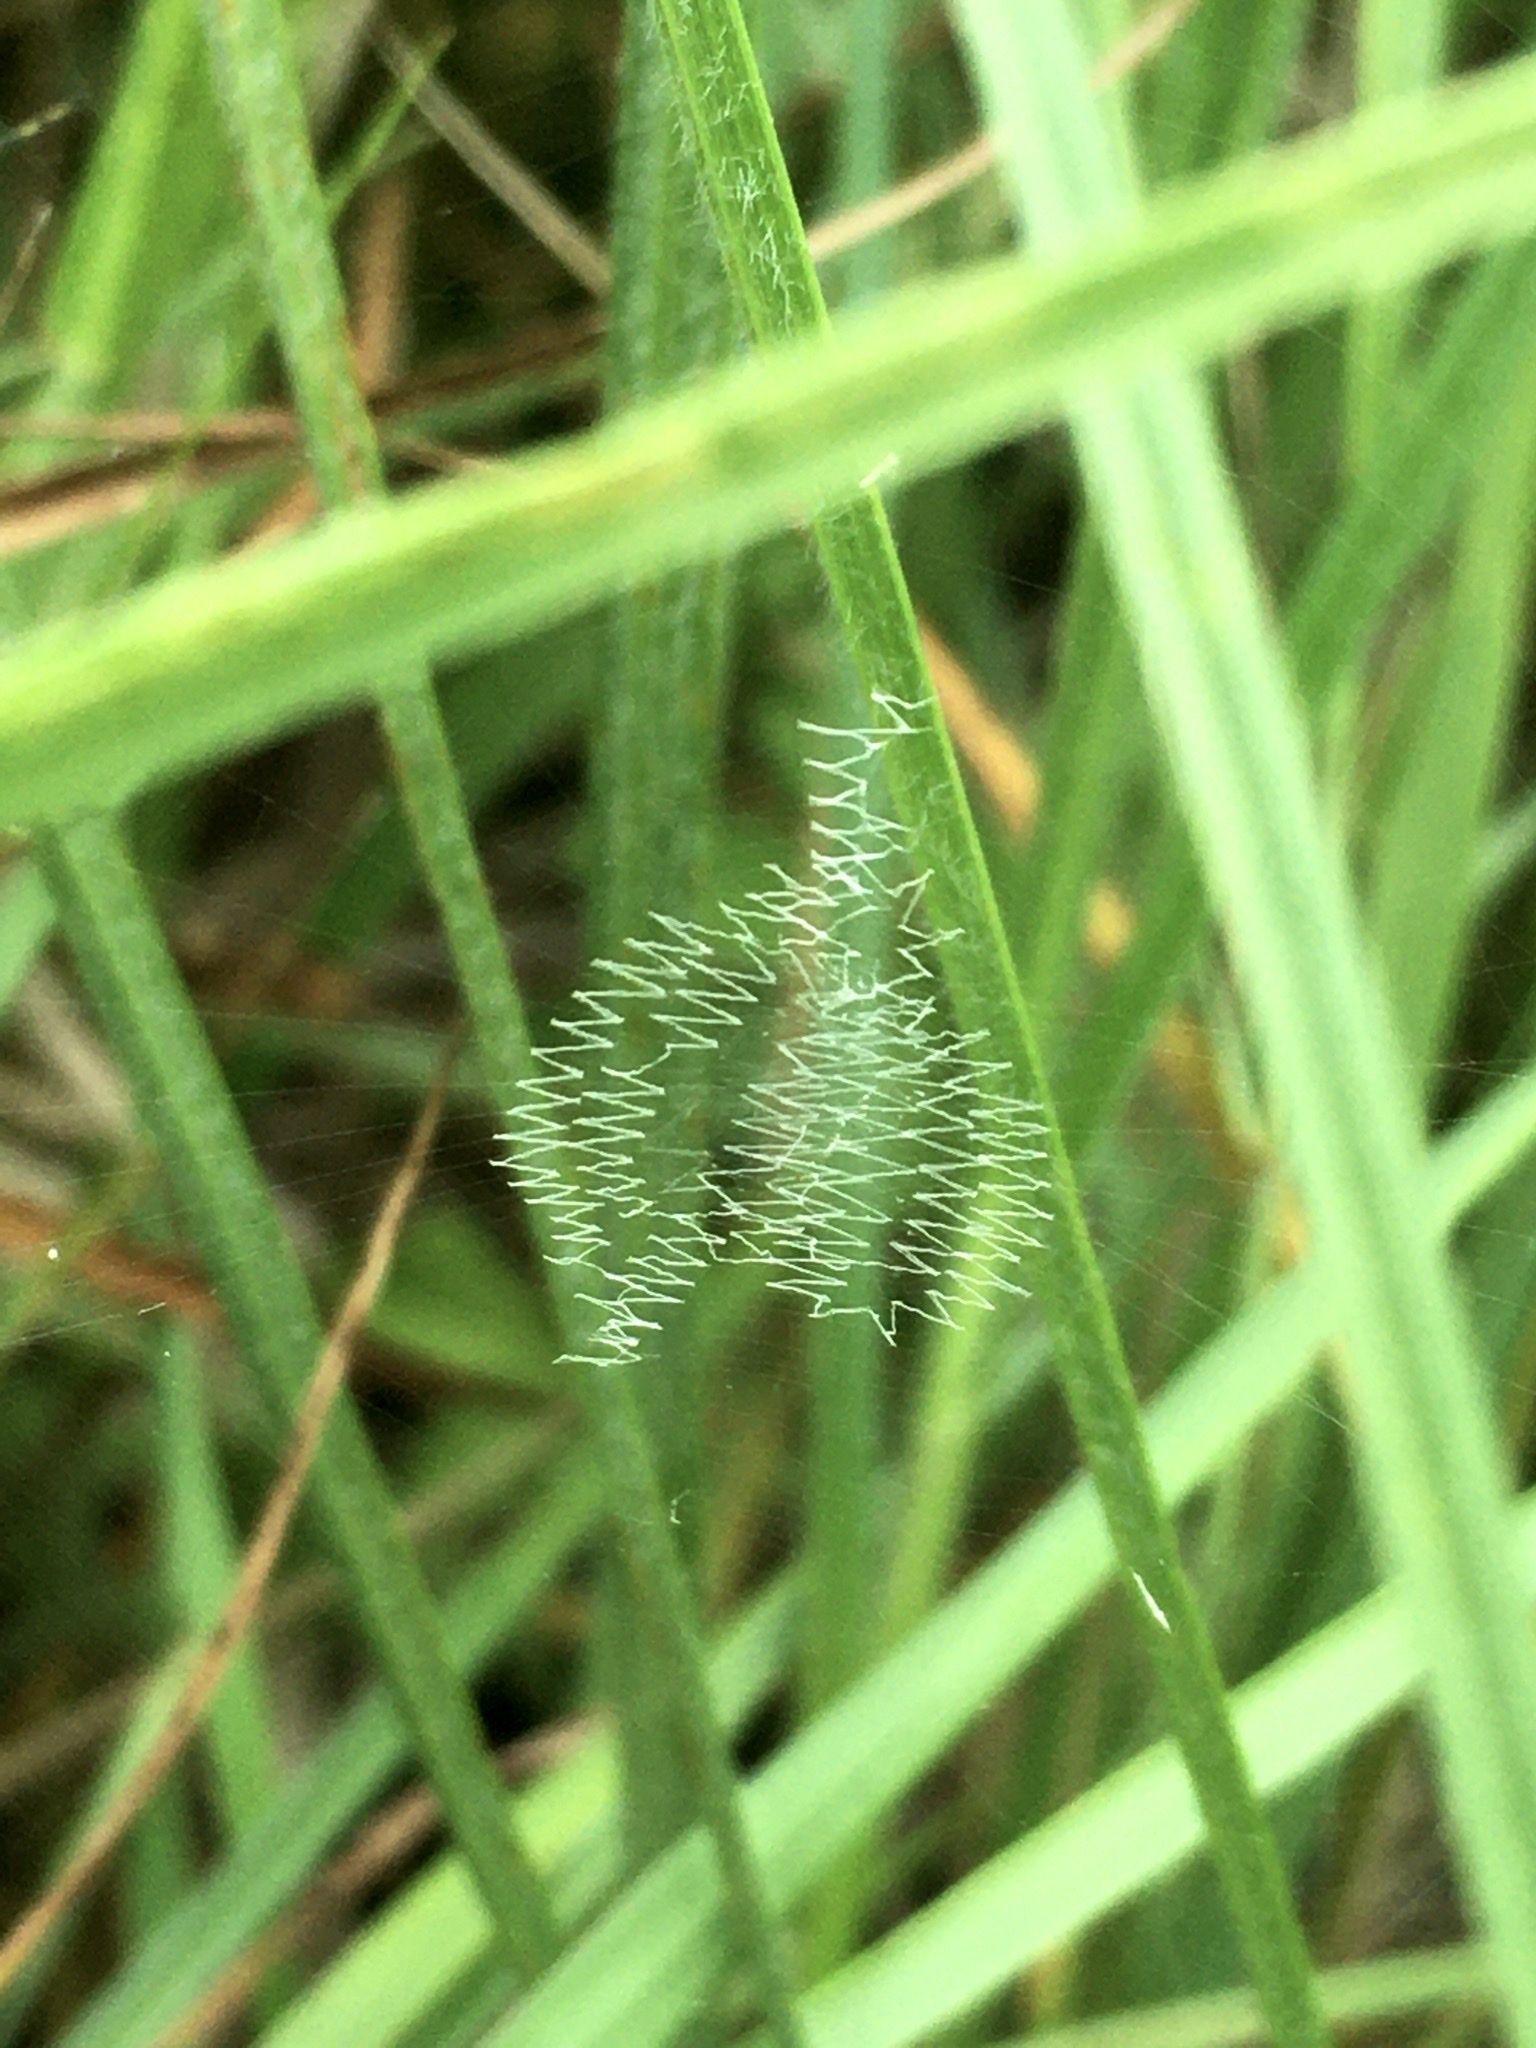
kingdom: Animalia
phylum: Arthropoda
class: Arachnida
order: Araneae
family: Araneidae
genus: Argiope
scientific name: Argiope bruennichi
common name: Wasp spider
